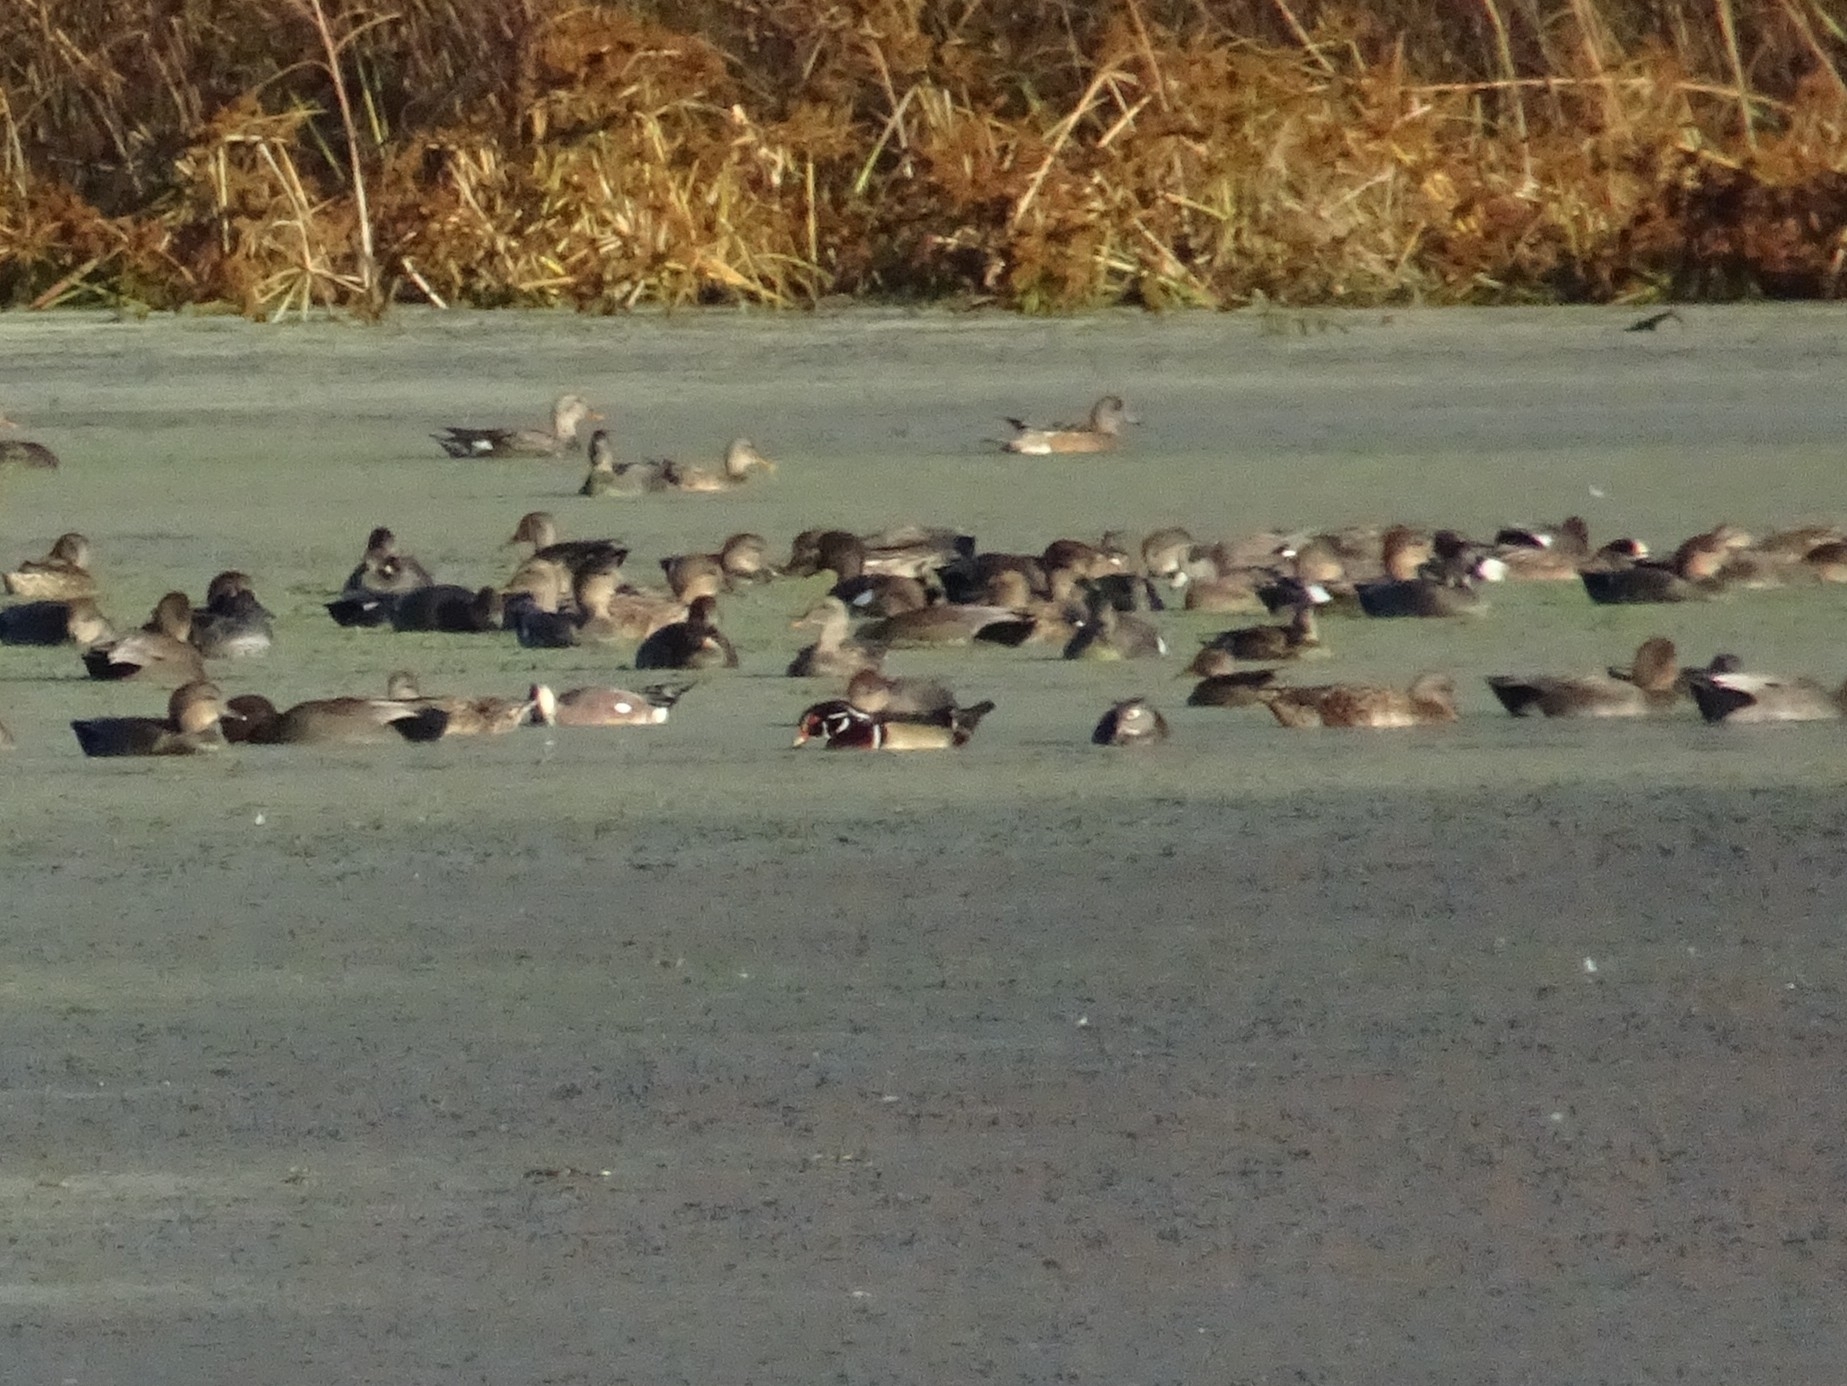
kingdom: Animalia
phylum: Chordata
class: Aves
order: Anseriformes
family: Anatidae
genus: Aix
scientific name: Aix sponsa
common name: Wood duck
